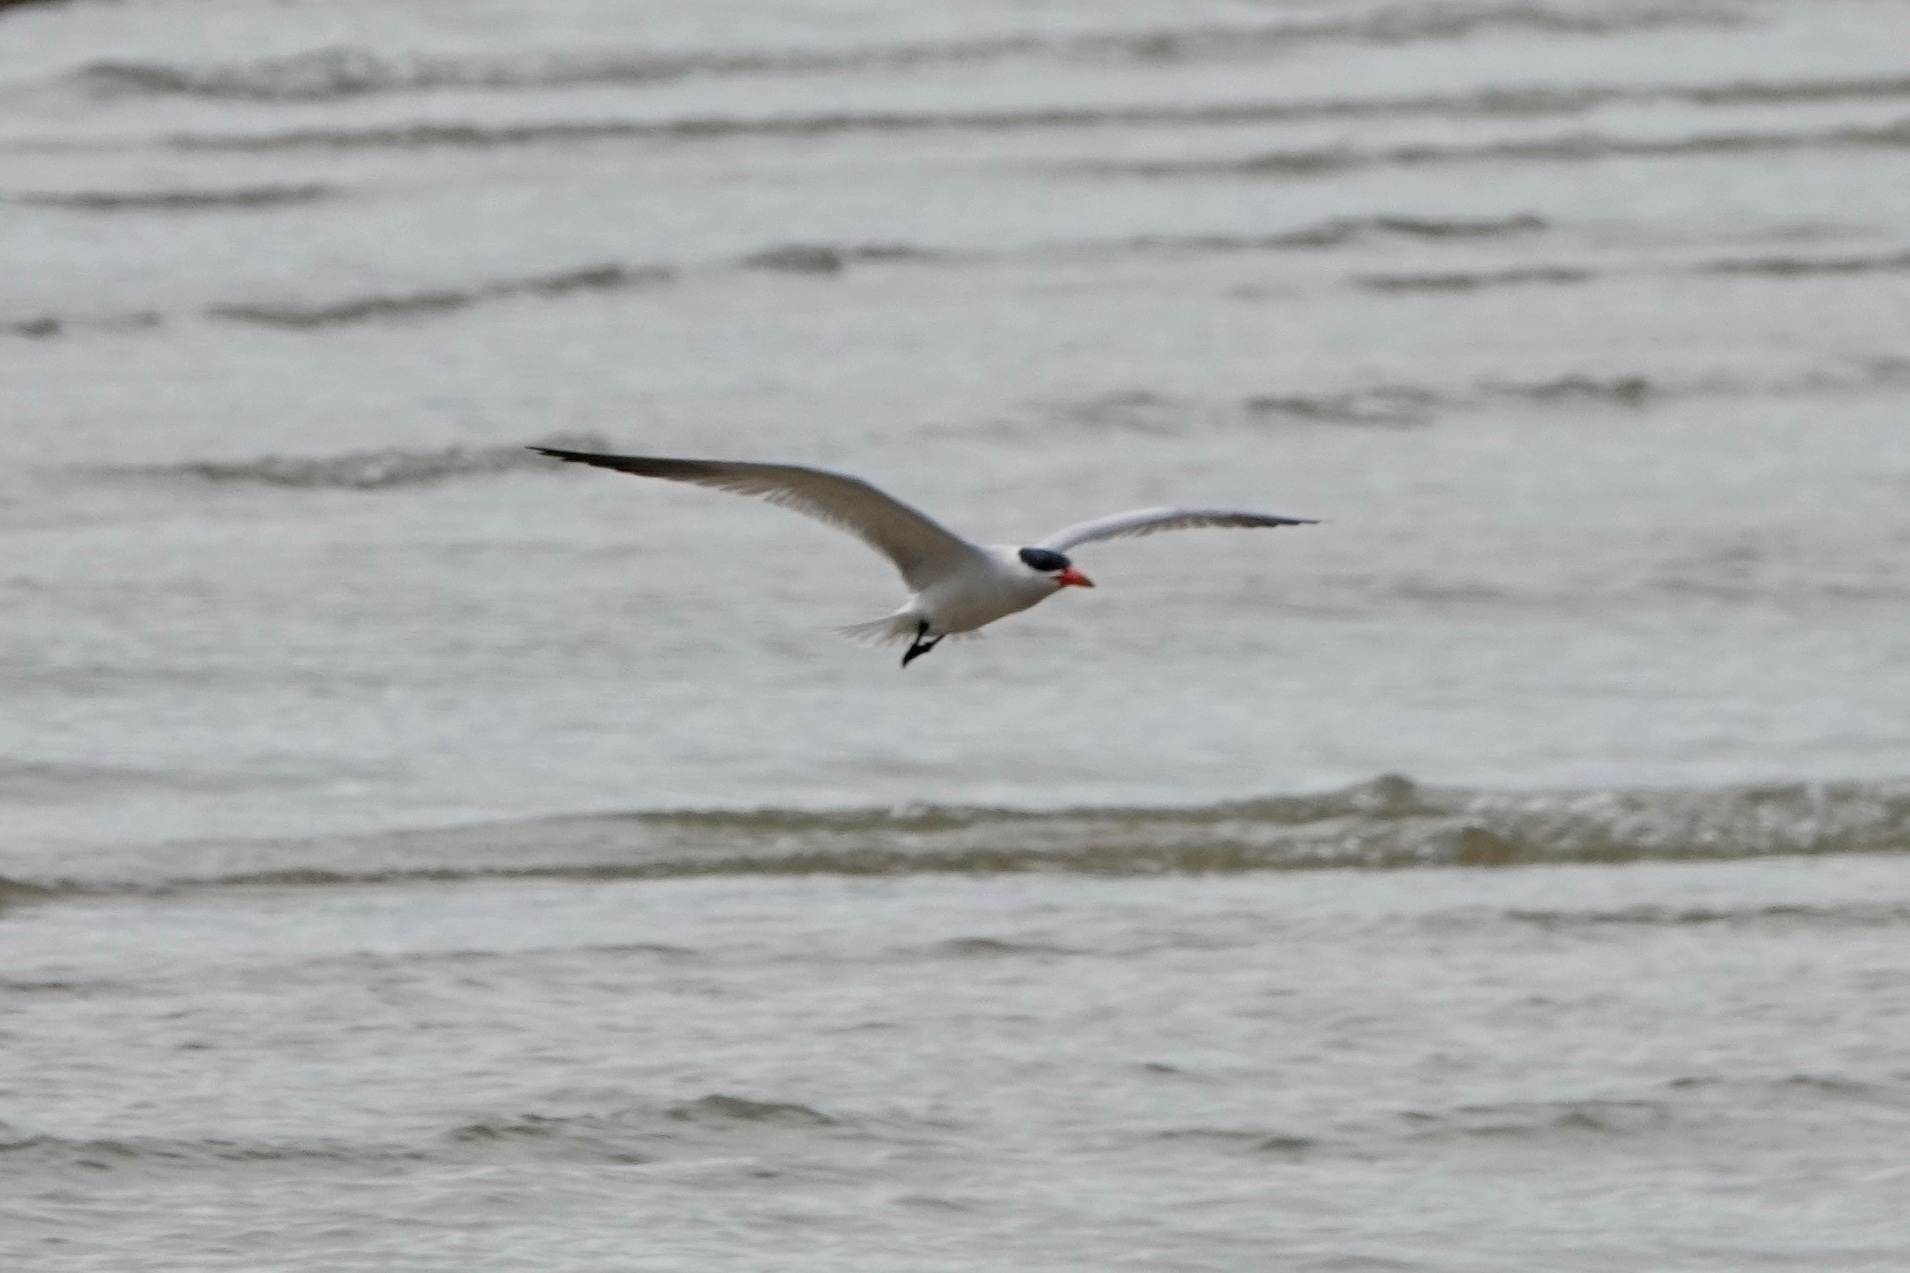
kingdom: Animalia
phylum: Chordata
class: Aves
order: Charadriiformes
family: Laridae
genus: Hydroprogne
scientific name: Hydroprogne caspia
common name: Caspian tern
